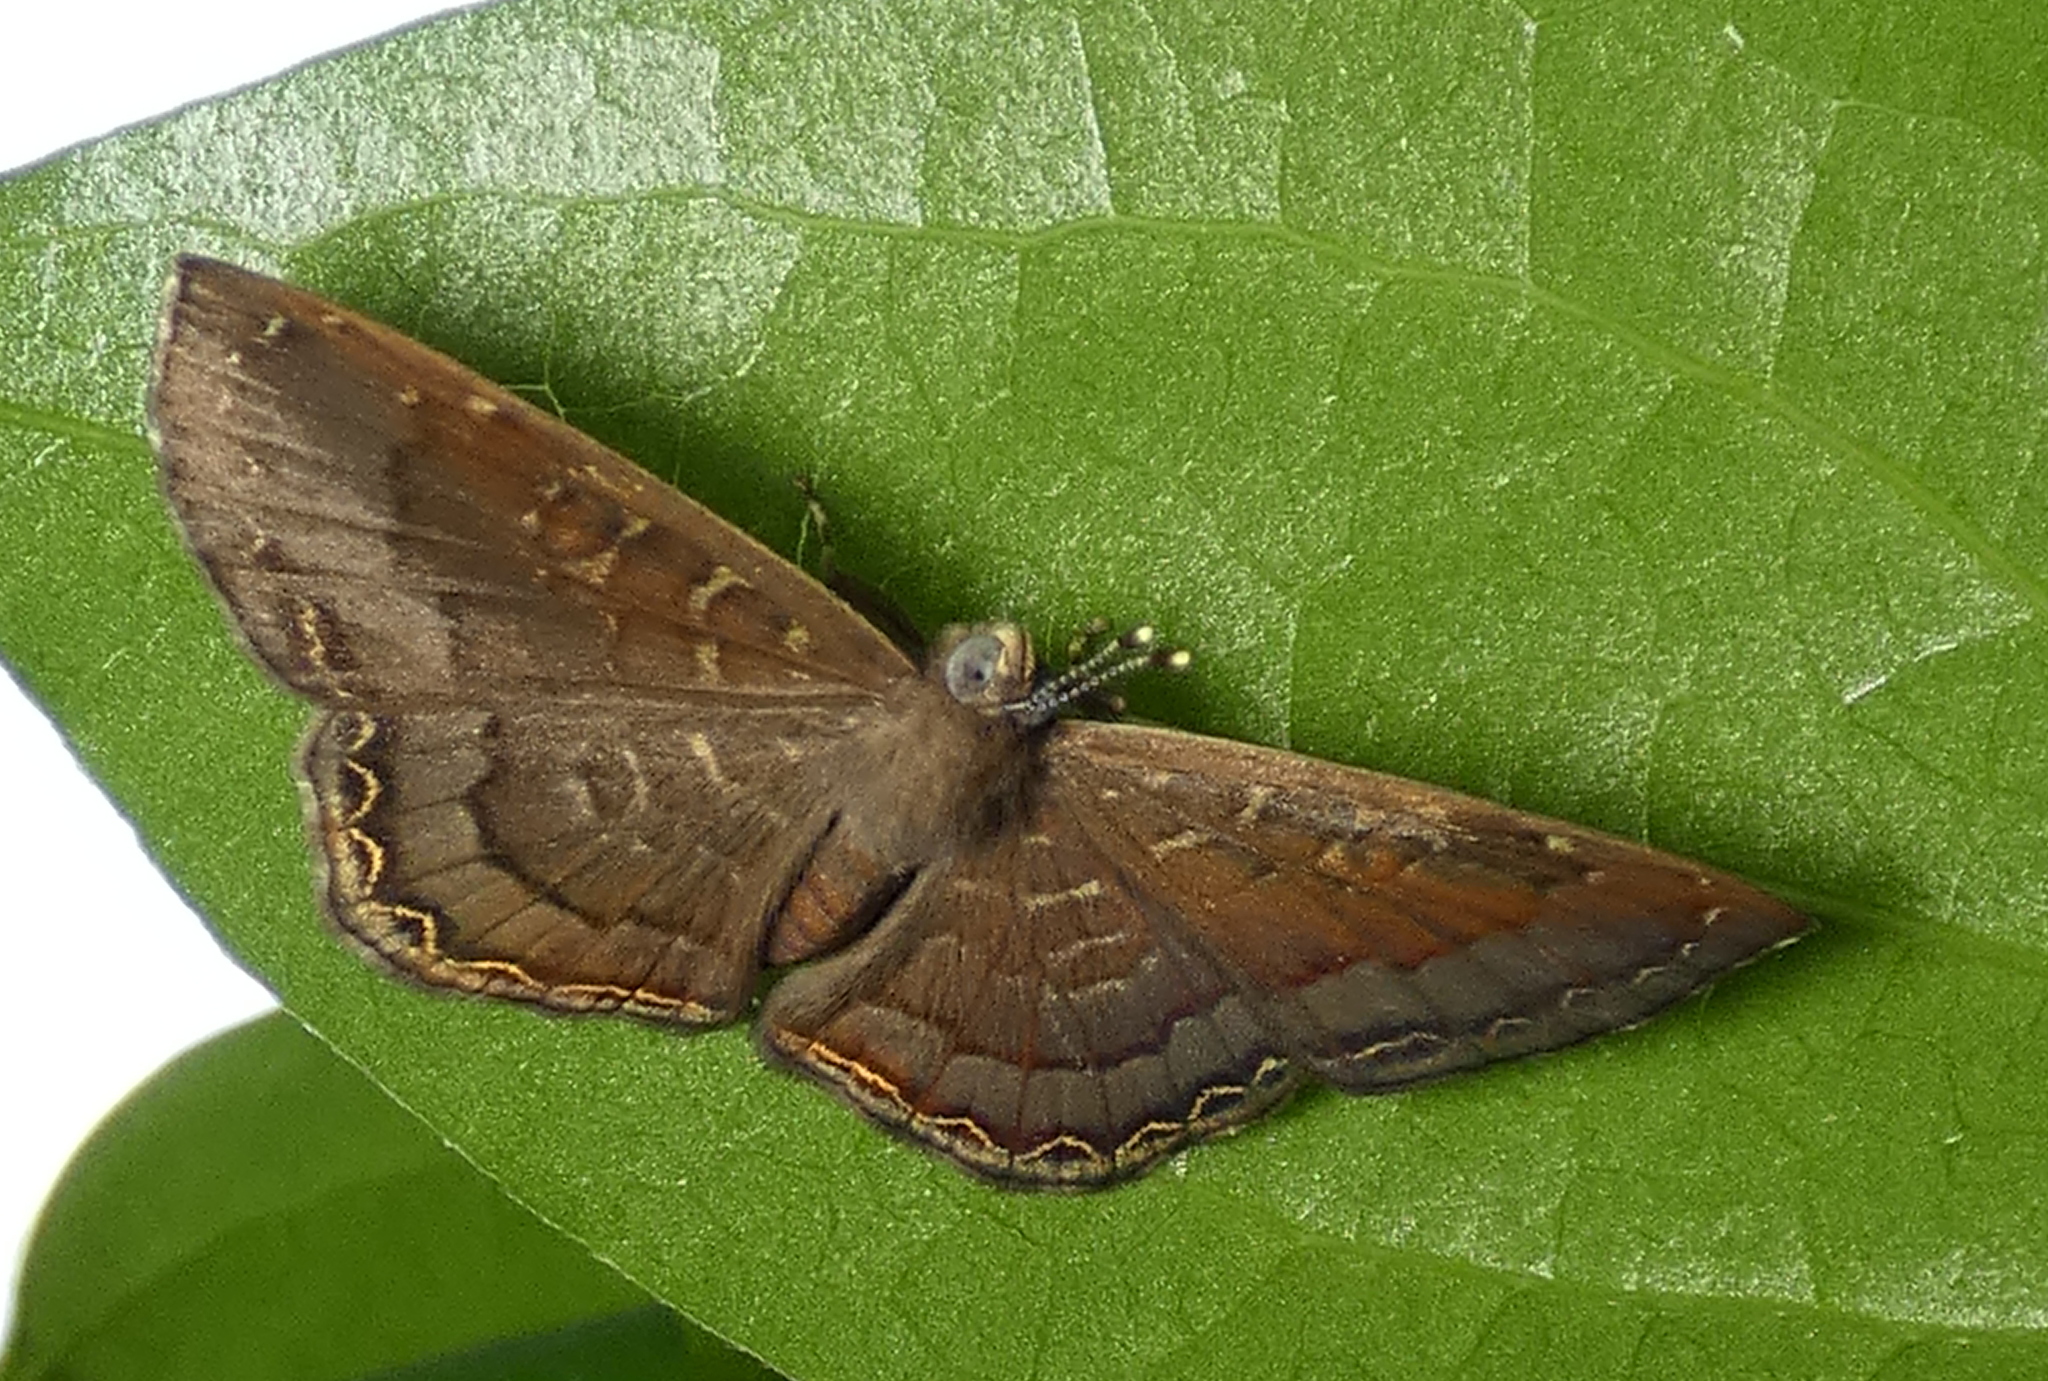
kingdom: Animalia
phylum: Arthropoda
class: Insecta
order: Diptera
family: Ephydridae
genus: Napaea
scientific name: Napaea phryxe
